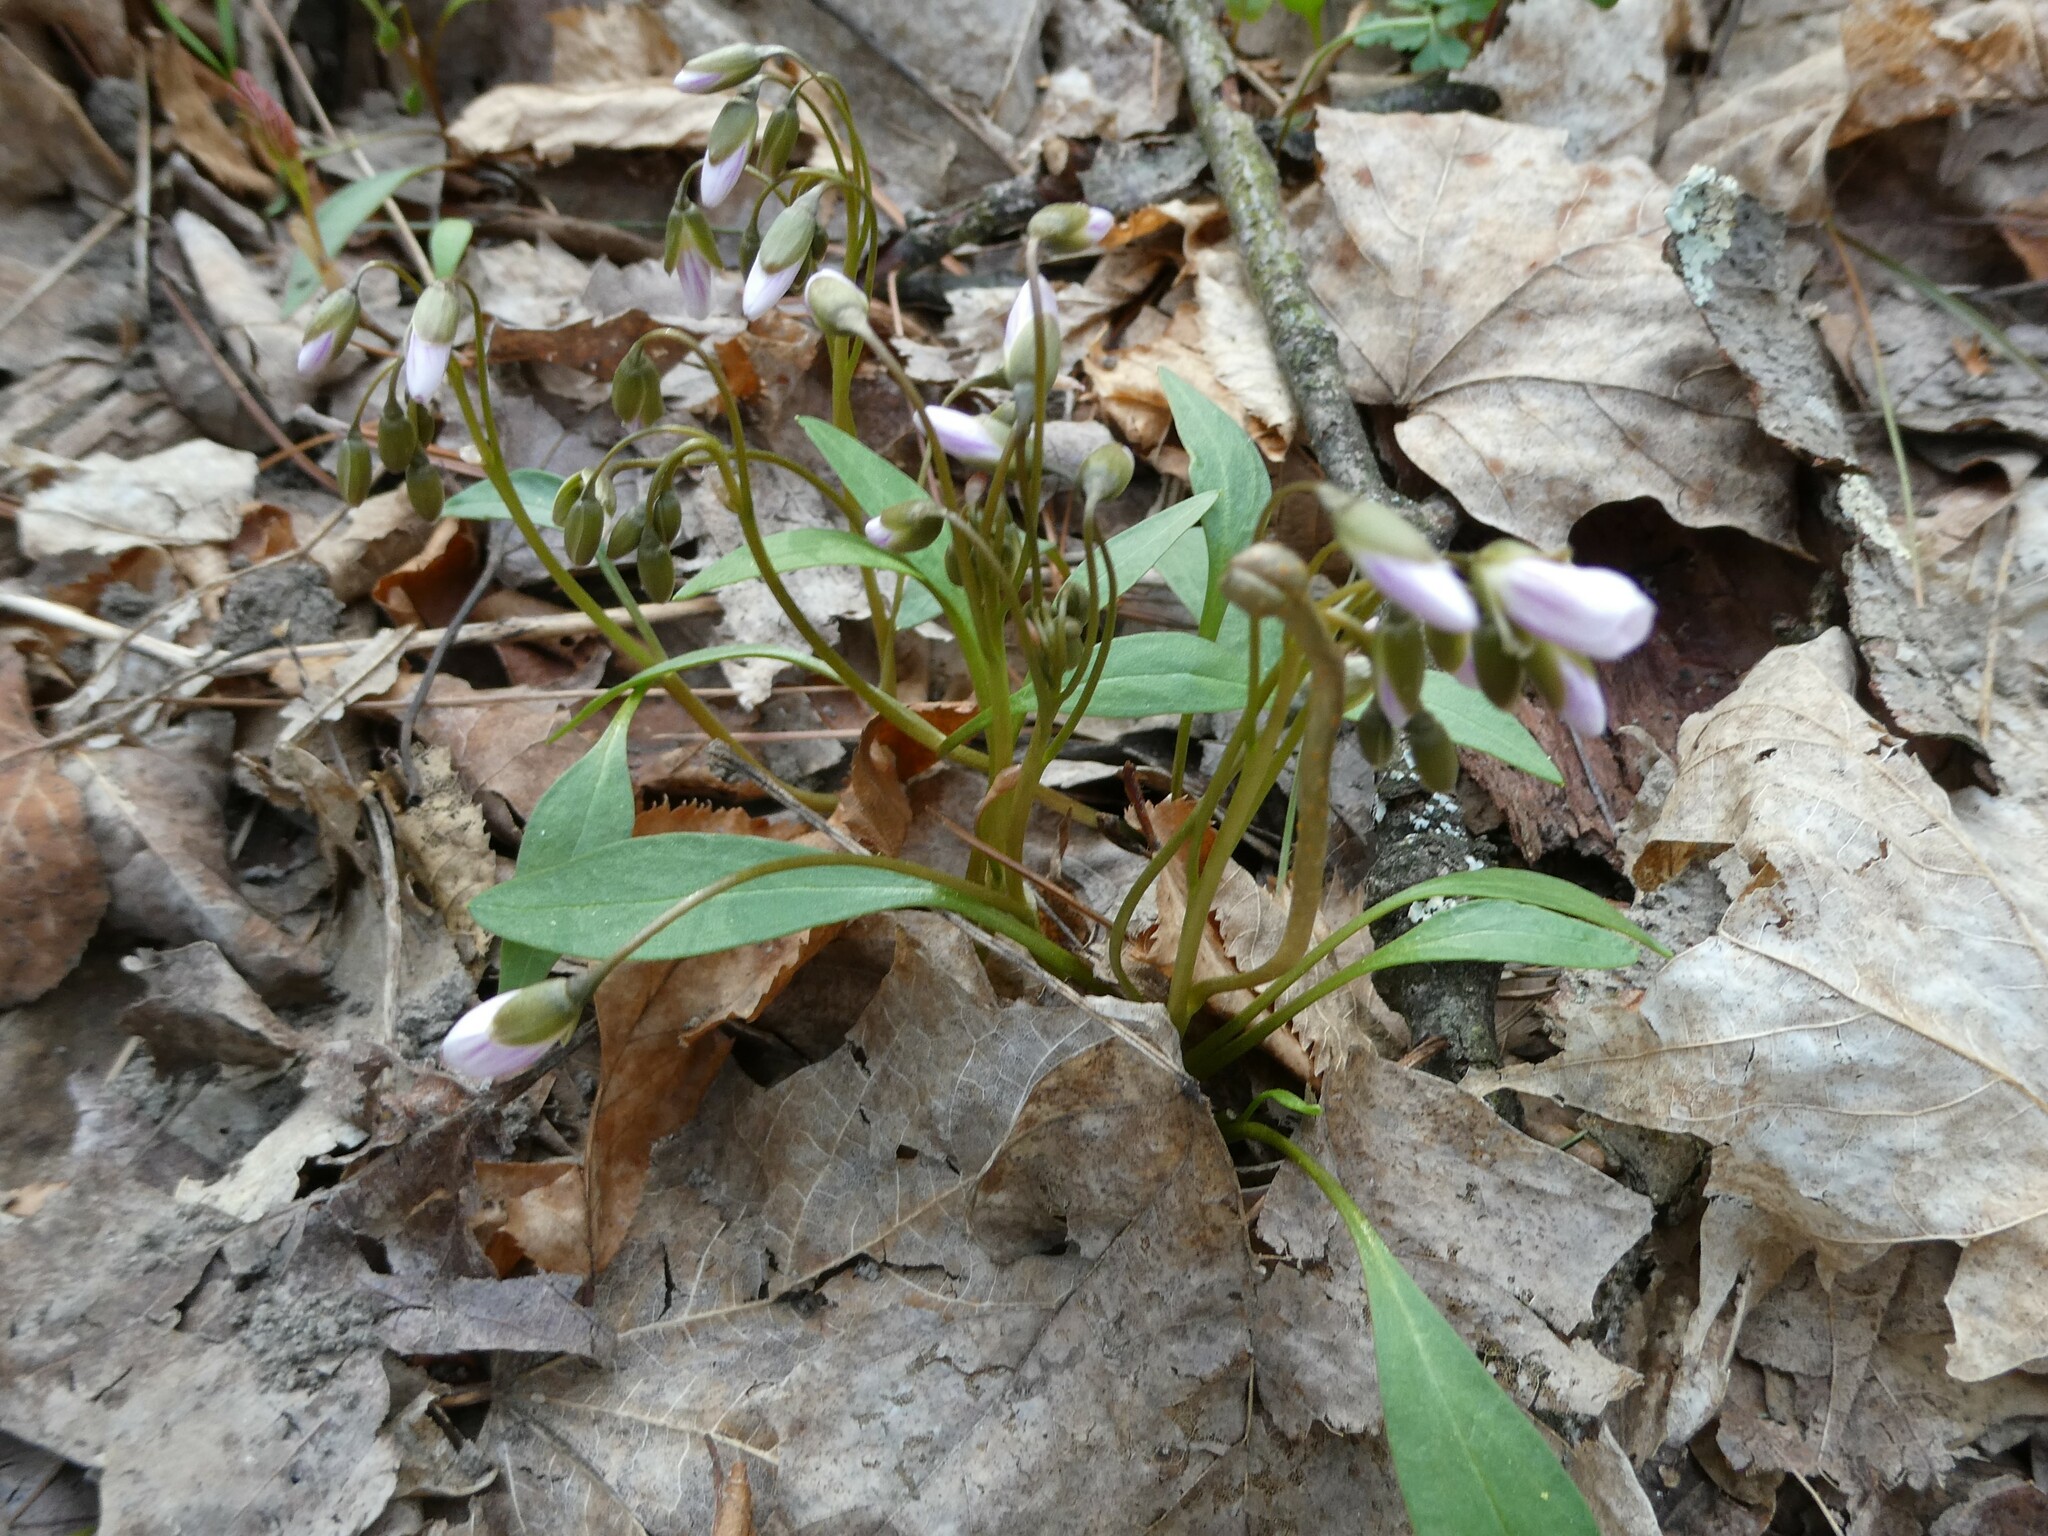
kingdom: Plantae
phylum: Tracheophyta
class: Magnoliopsida
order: Caryophyllales
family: Montiaceae
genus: Claytonia
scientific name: Claytonia caroliniana
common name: Carolina spring beauty
